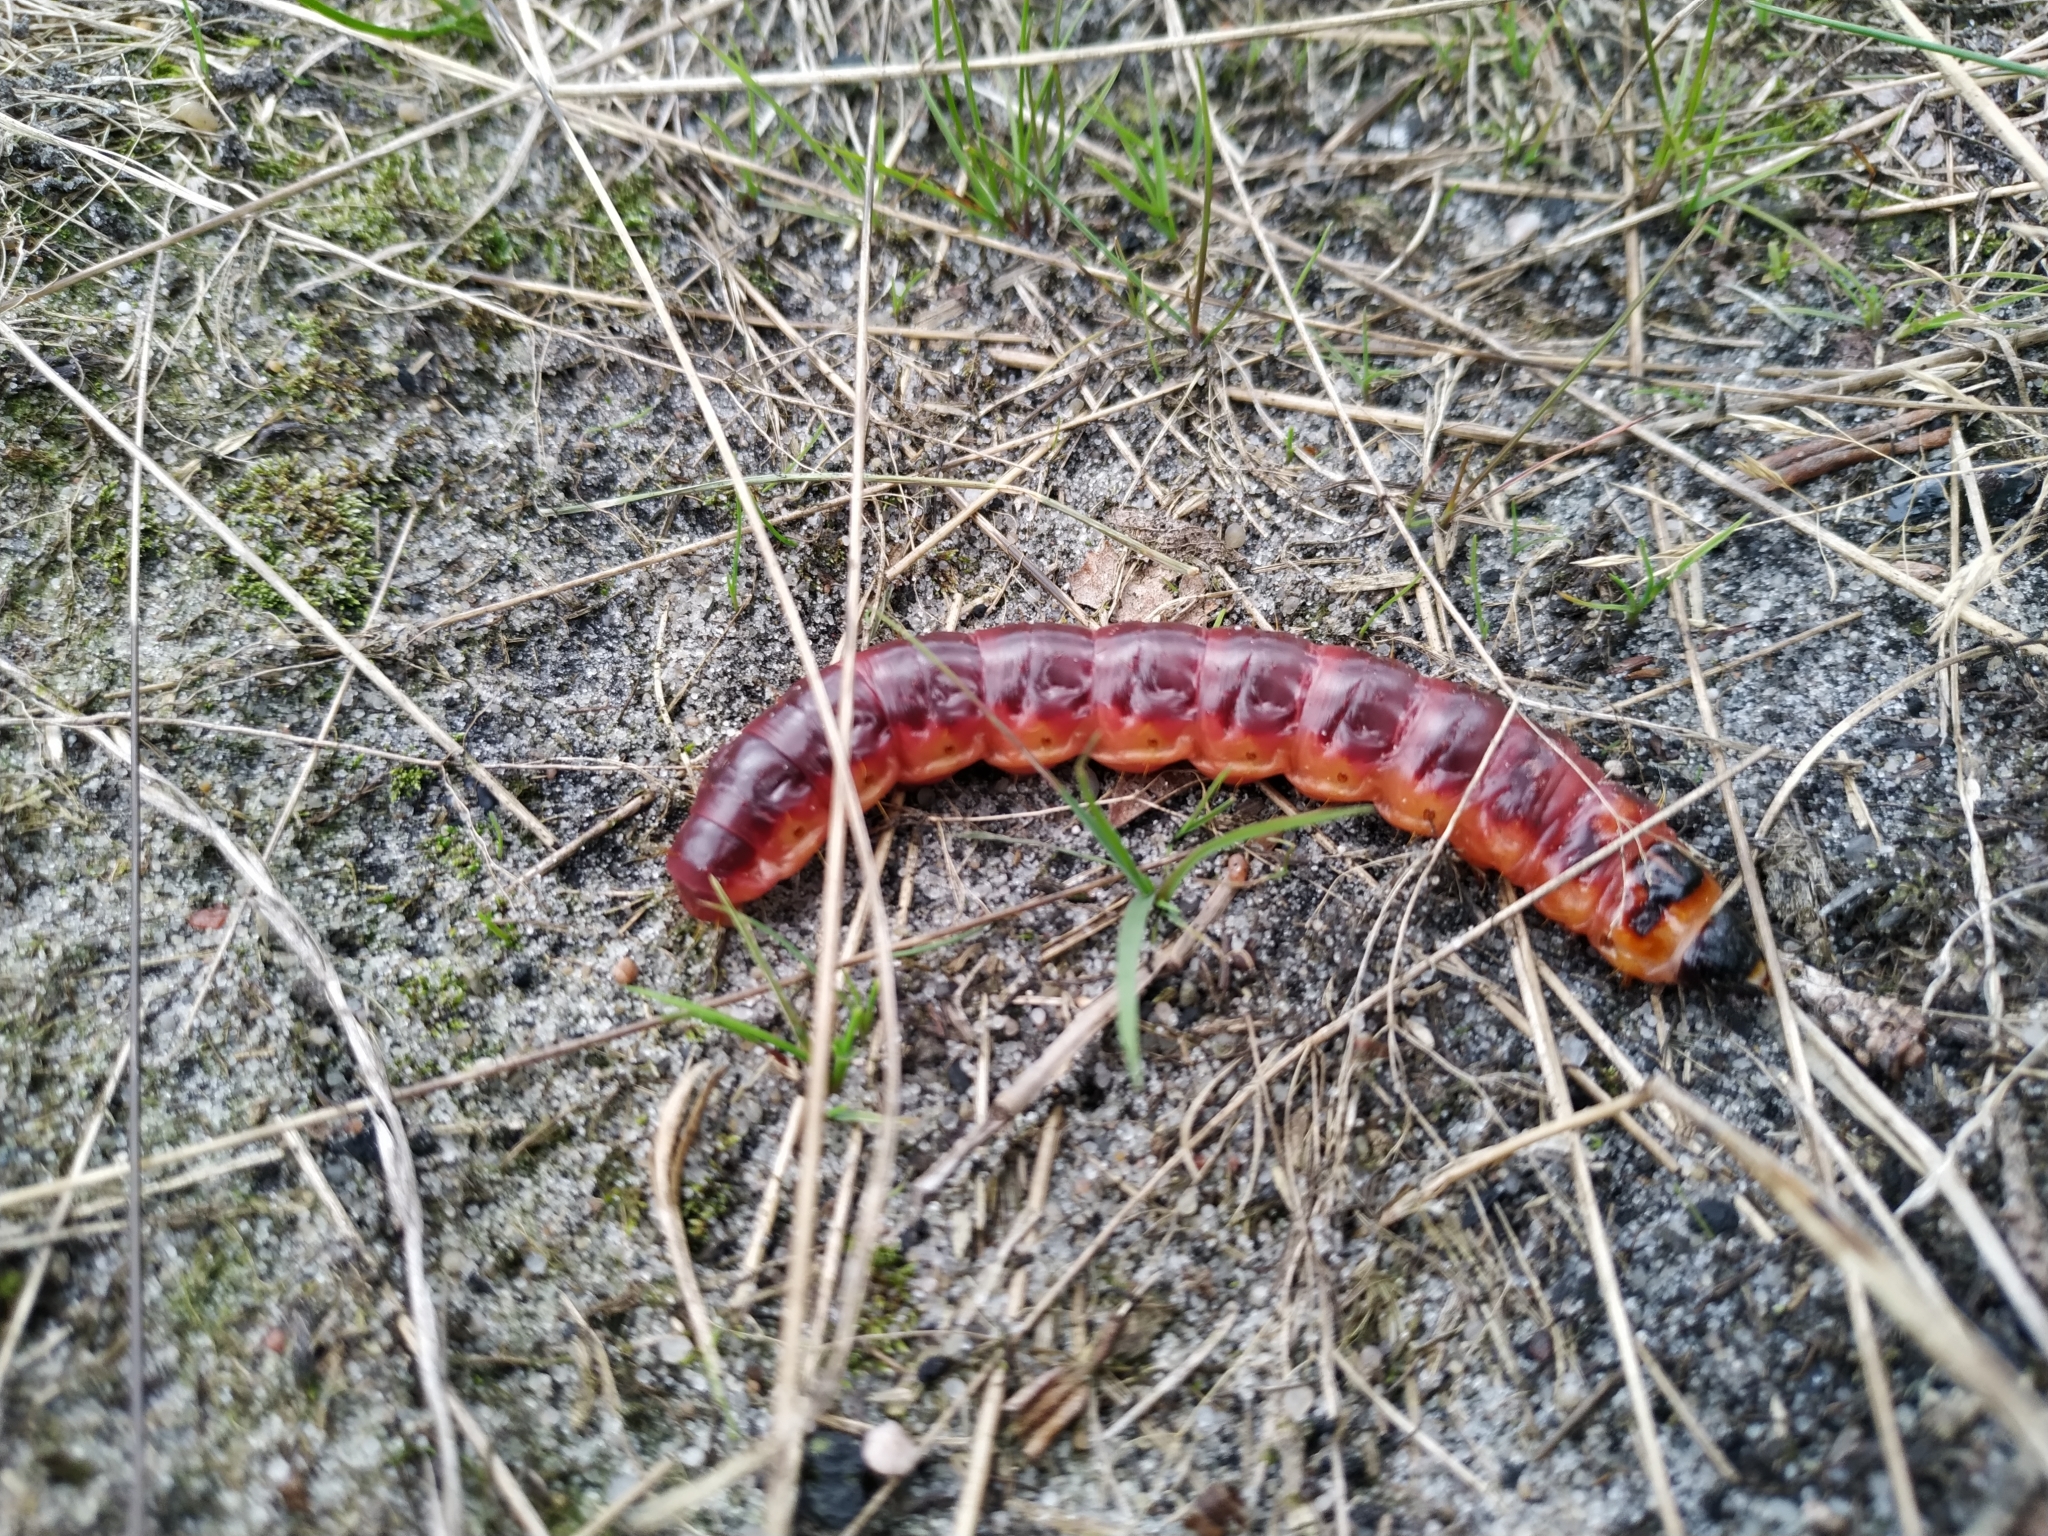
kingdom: Animalia
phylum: Arthropoda
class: Insecta
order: Lepidoptera
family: Cossidae
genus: Cossus
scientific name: Cossus cossus
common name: Goat moth
